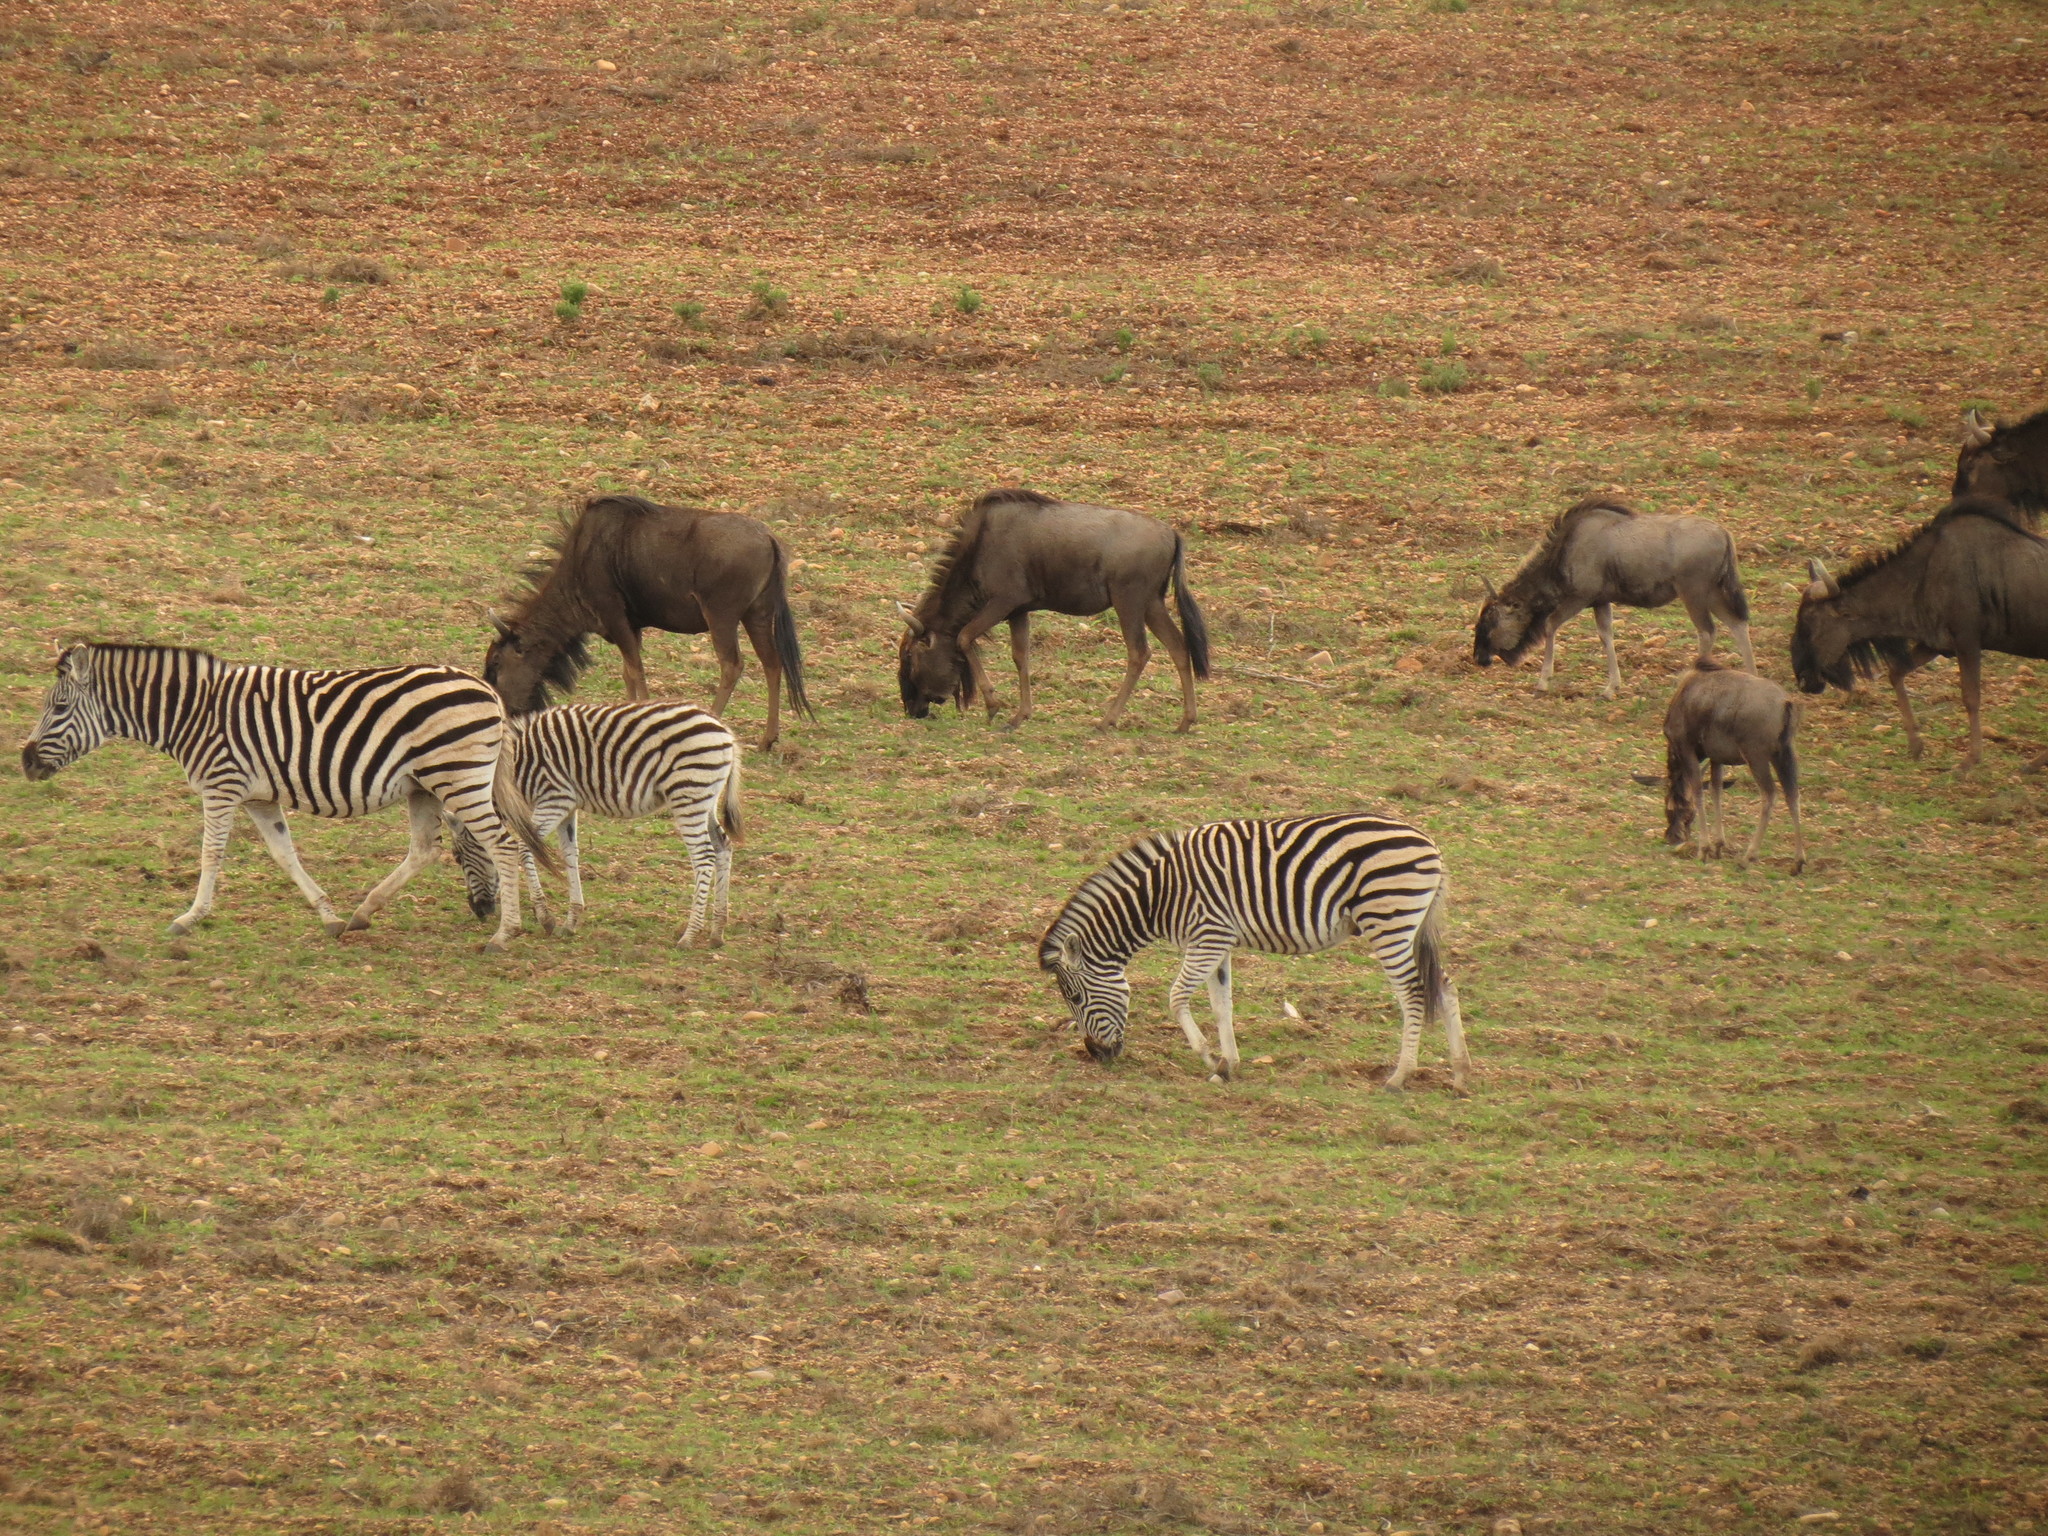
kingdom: Animalia
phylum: Chordata
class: Mammalia
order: Perissodactyla
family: Equidae
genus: Equus
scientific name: Equus quagga
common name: Plains zebra
